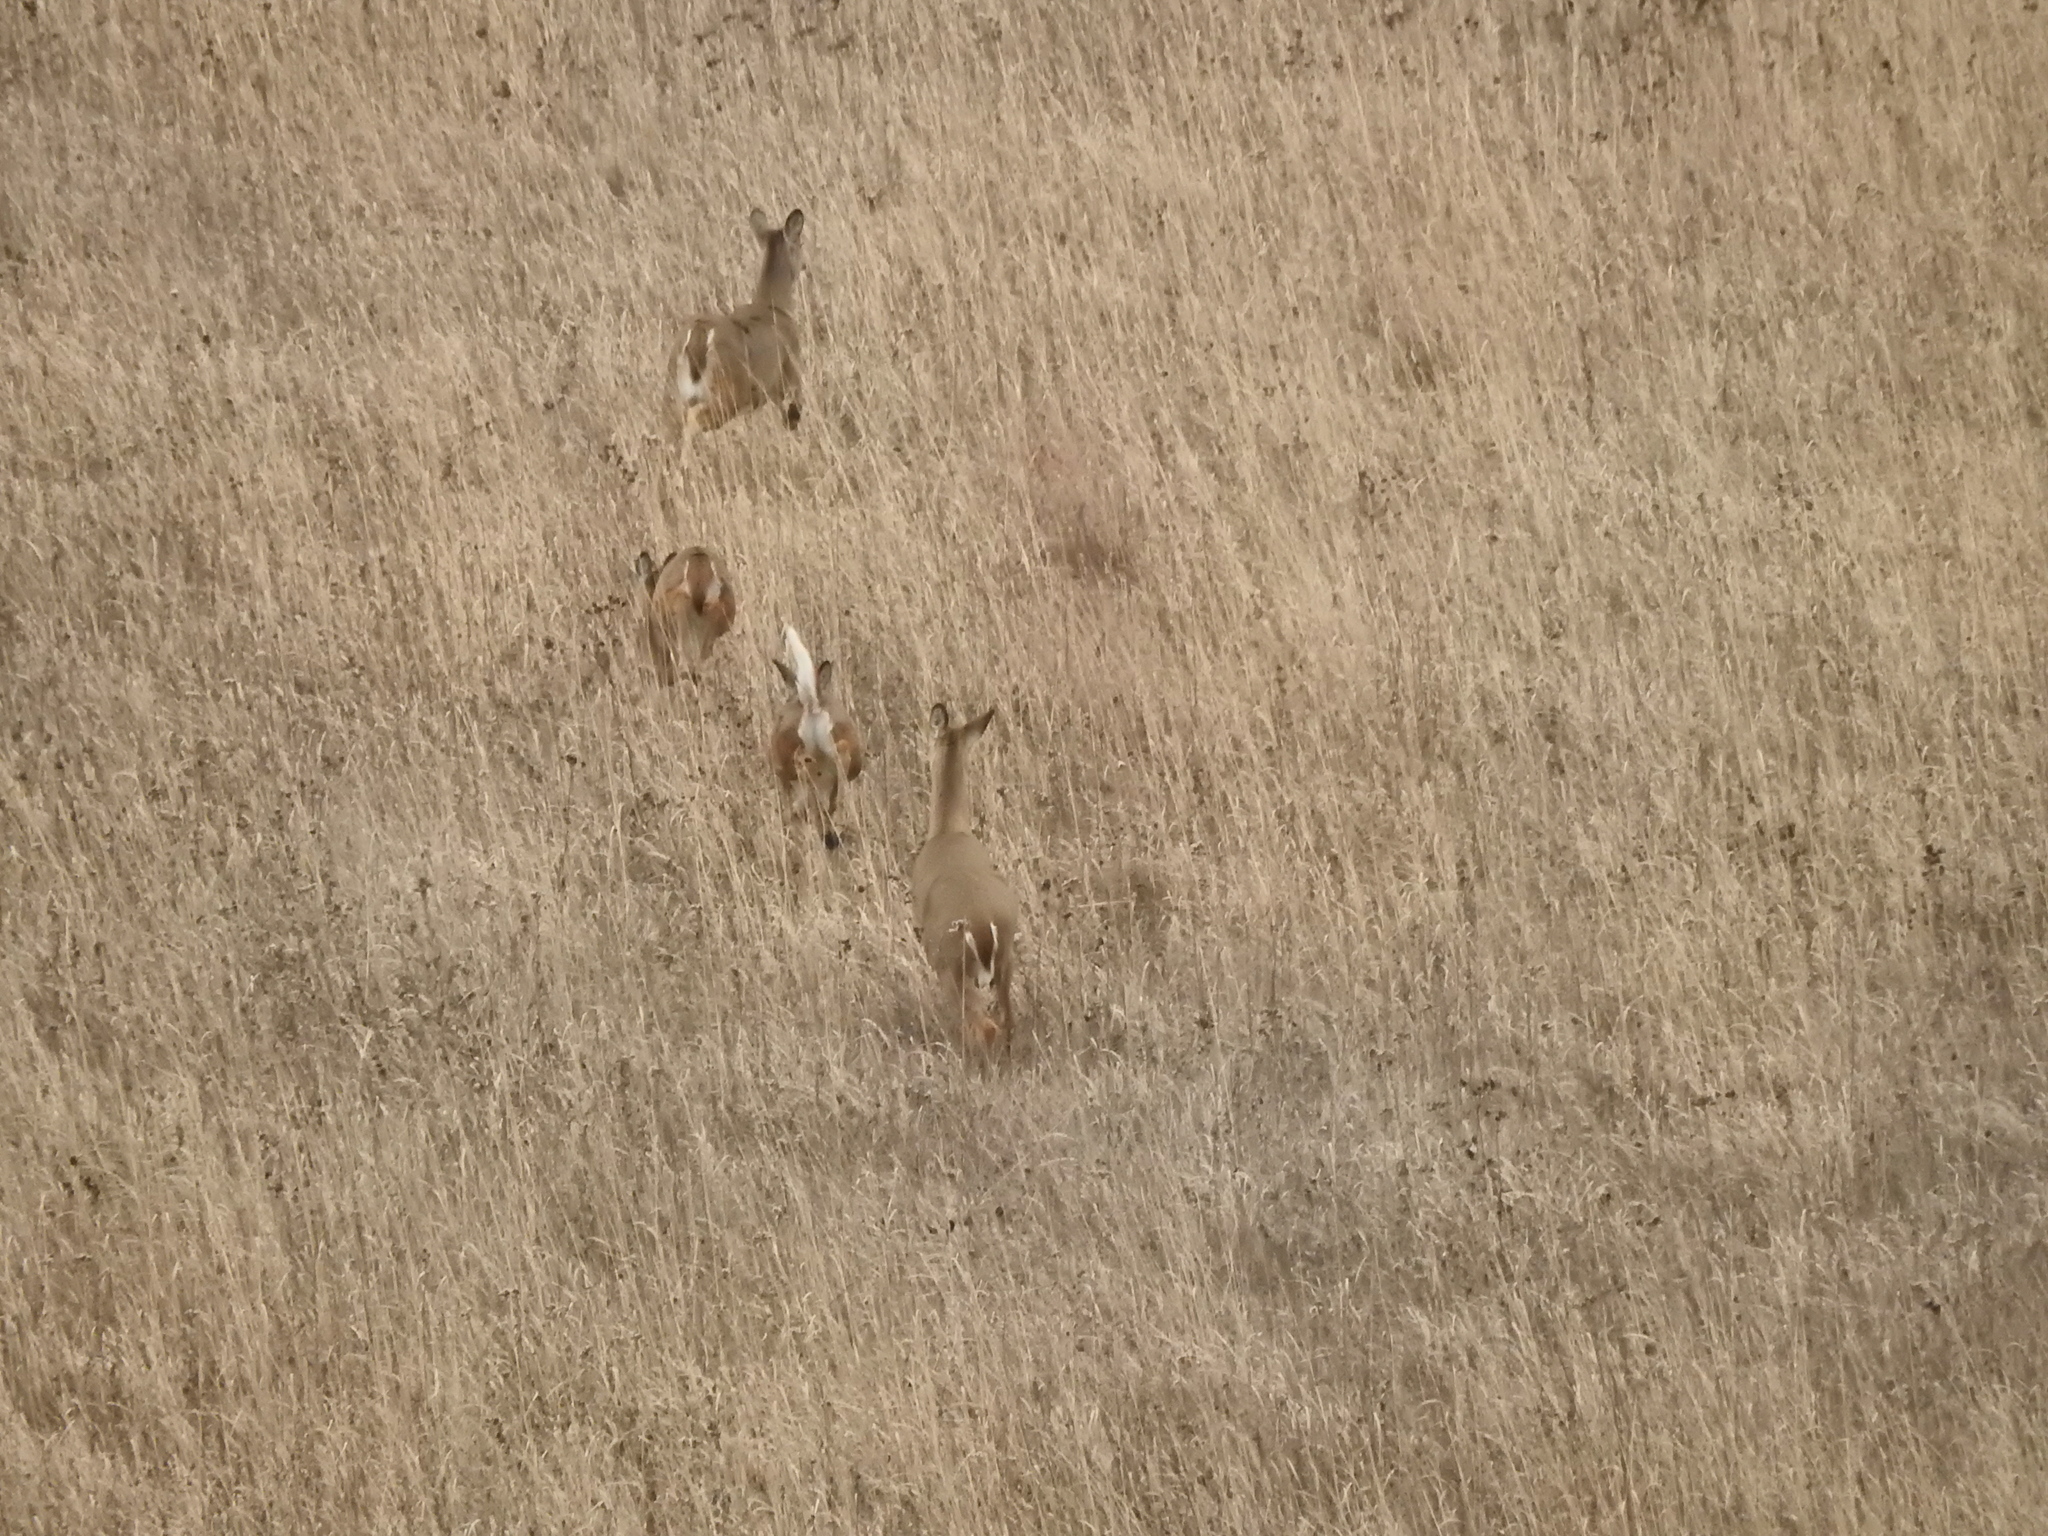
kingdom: Animalia
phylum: Chordata
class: Mammalia
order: Artiodactyla
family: Cervidae
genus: Odocoileus
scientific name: Odocoileus virginianus
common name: White-tailed deer
